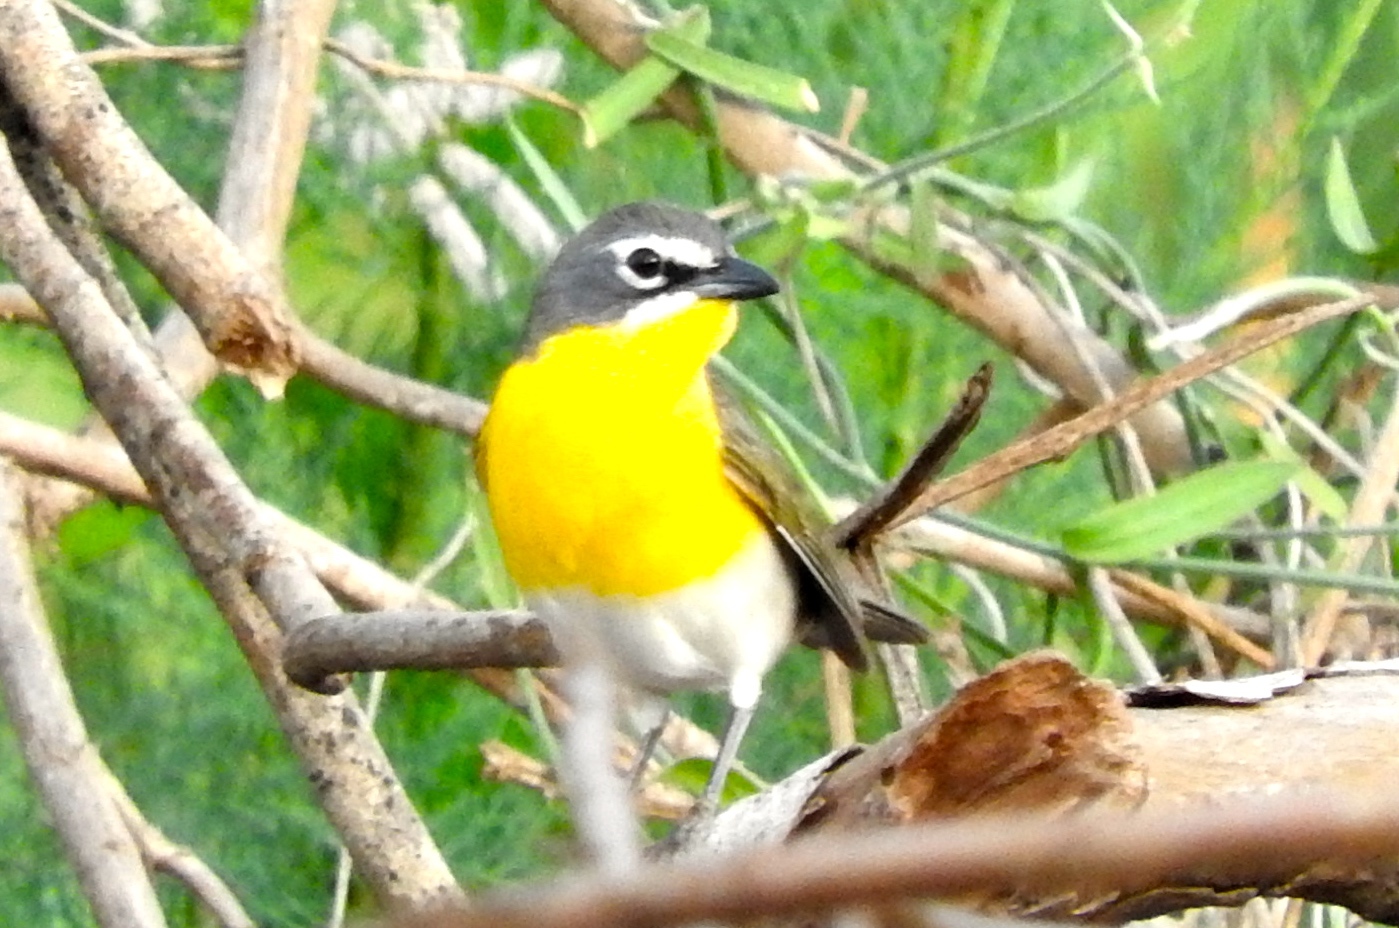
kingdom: Animalia
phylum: Chordata
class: Aves
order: Passeriformes
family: Parulidae
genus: Icteria
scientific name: Icteria virens
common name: Yellow-breasted chat
